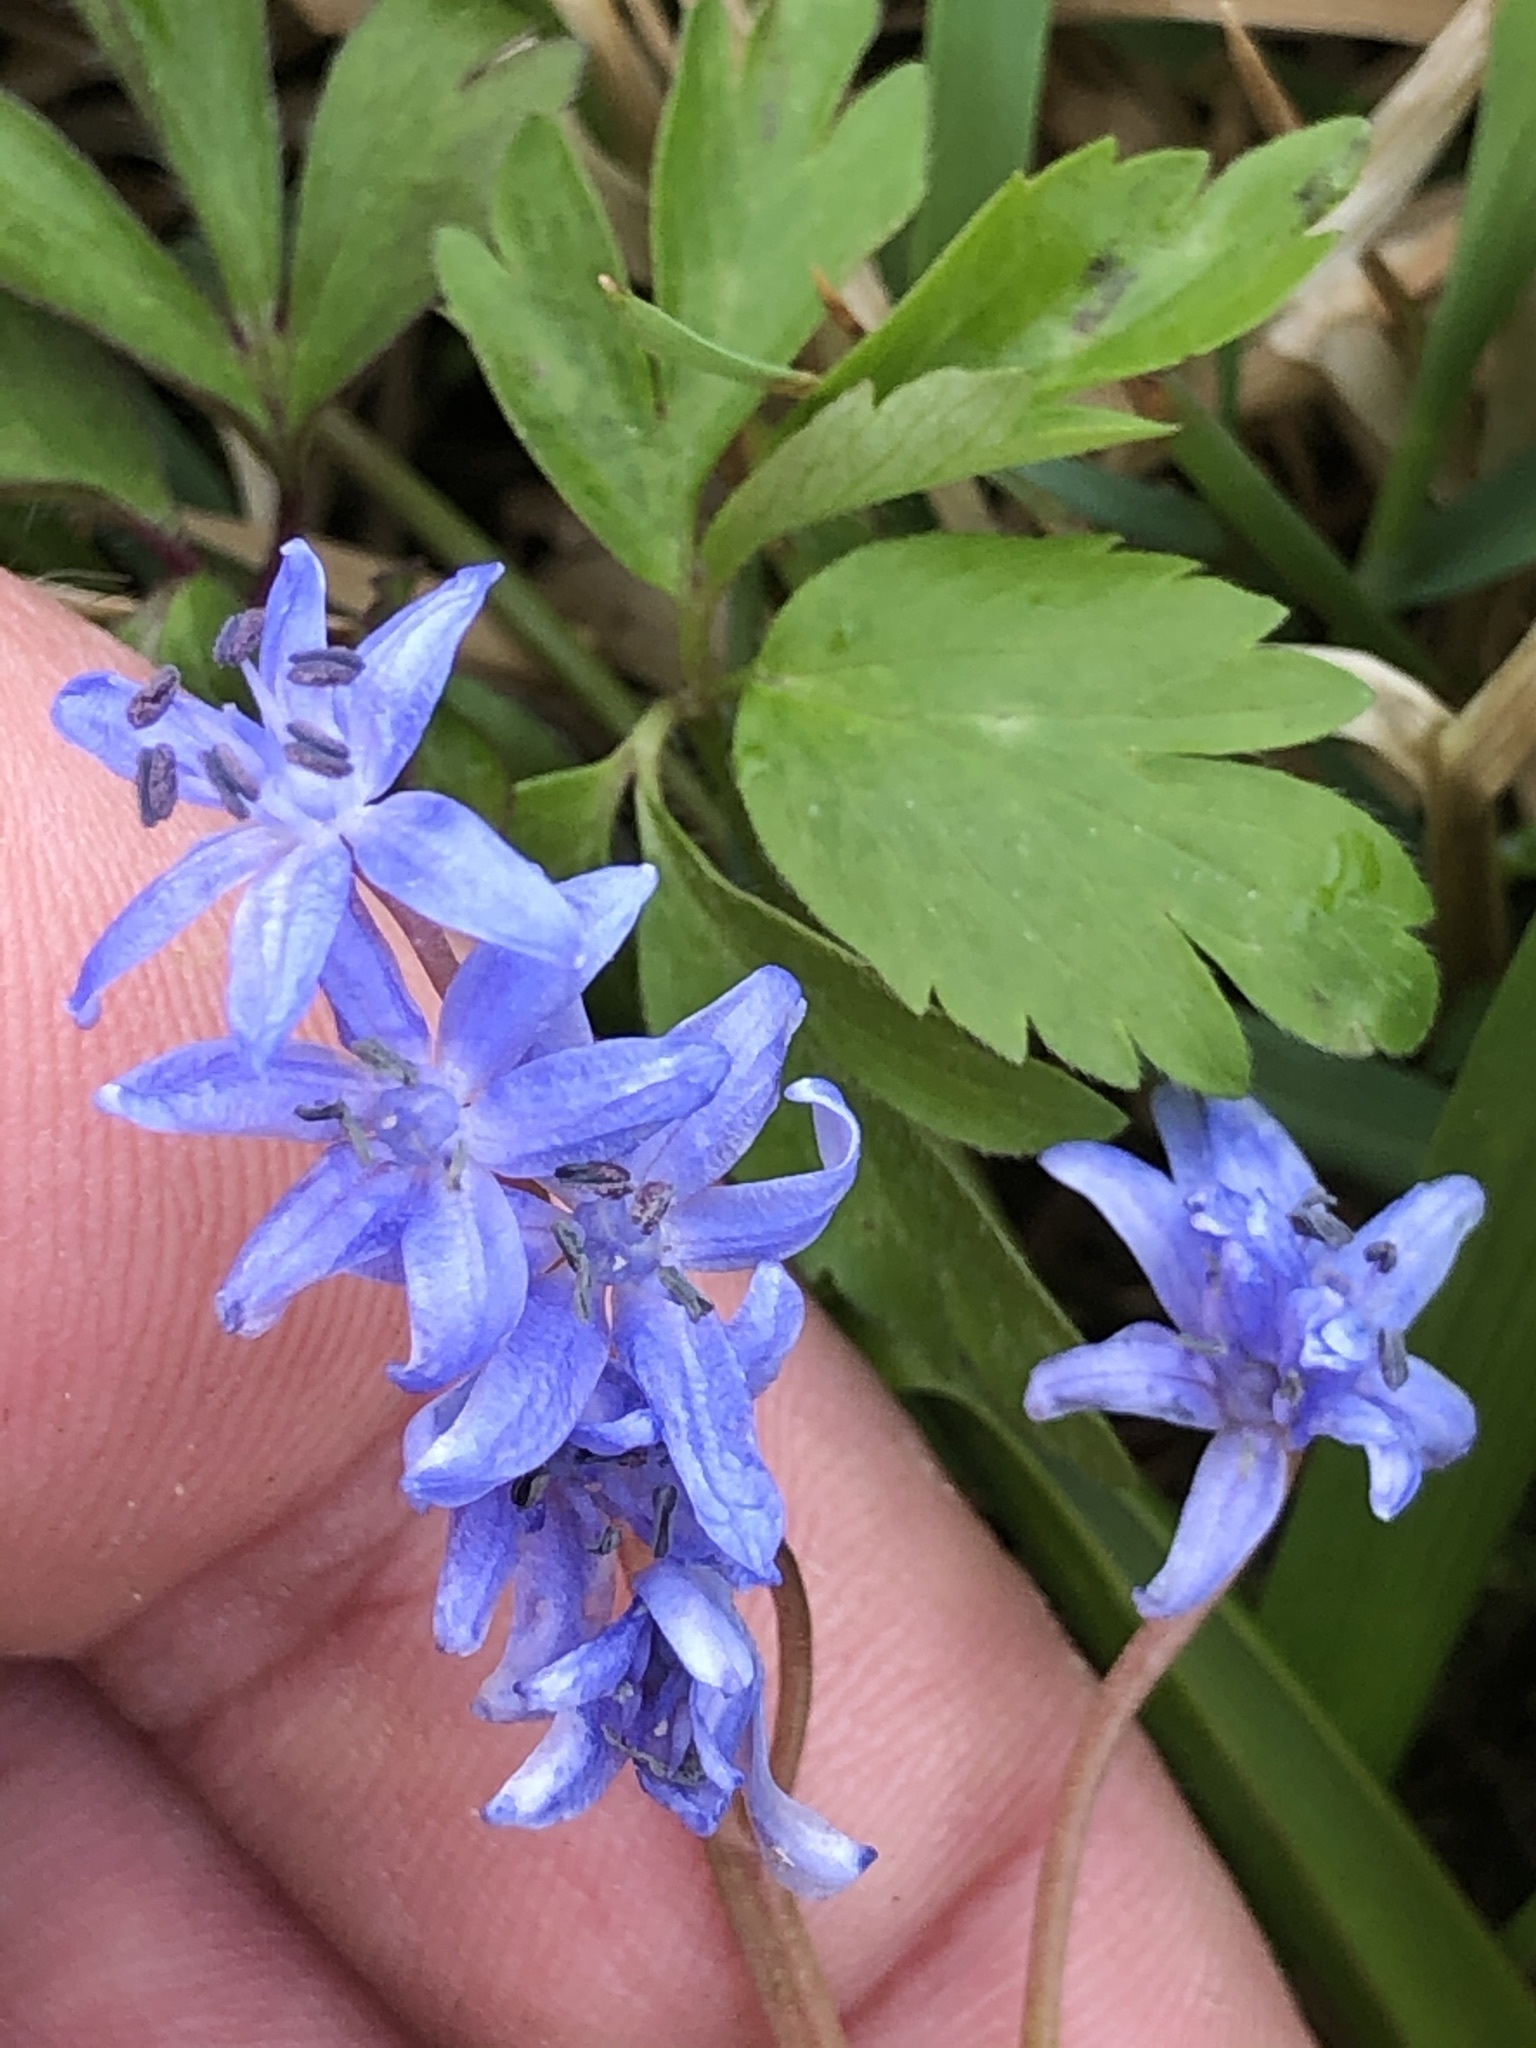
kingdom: Plantae
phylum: Tracheophyta
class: Liliopsida
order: Asparagales
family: Asparagaceae
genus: Scilla
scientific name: Scilla bifolia
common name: Alpine squill
